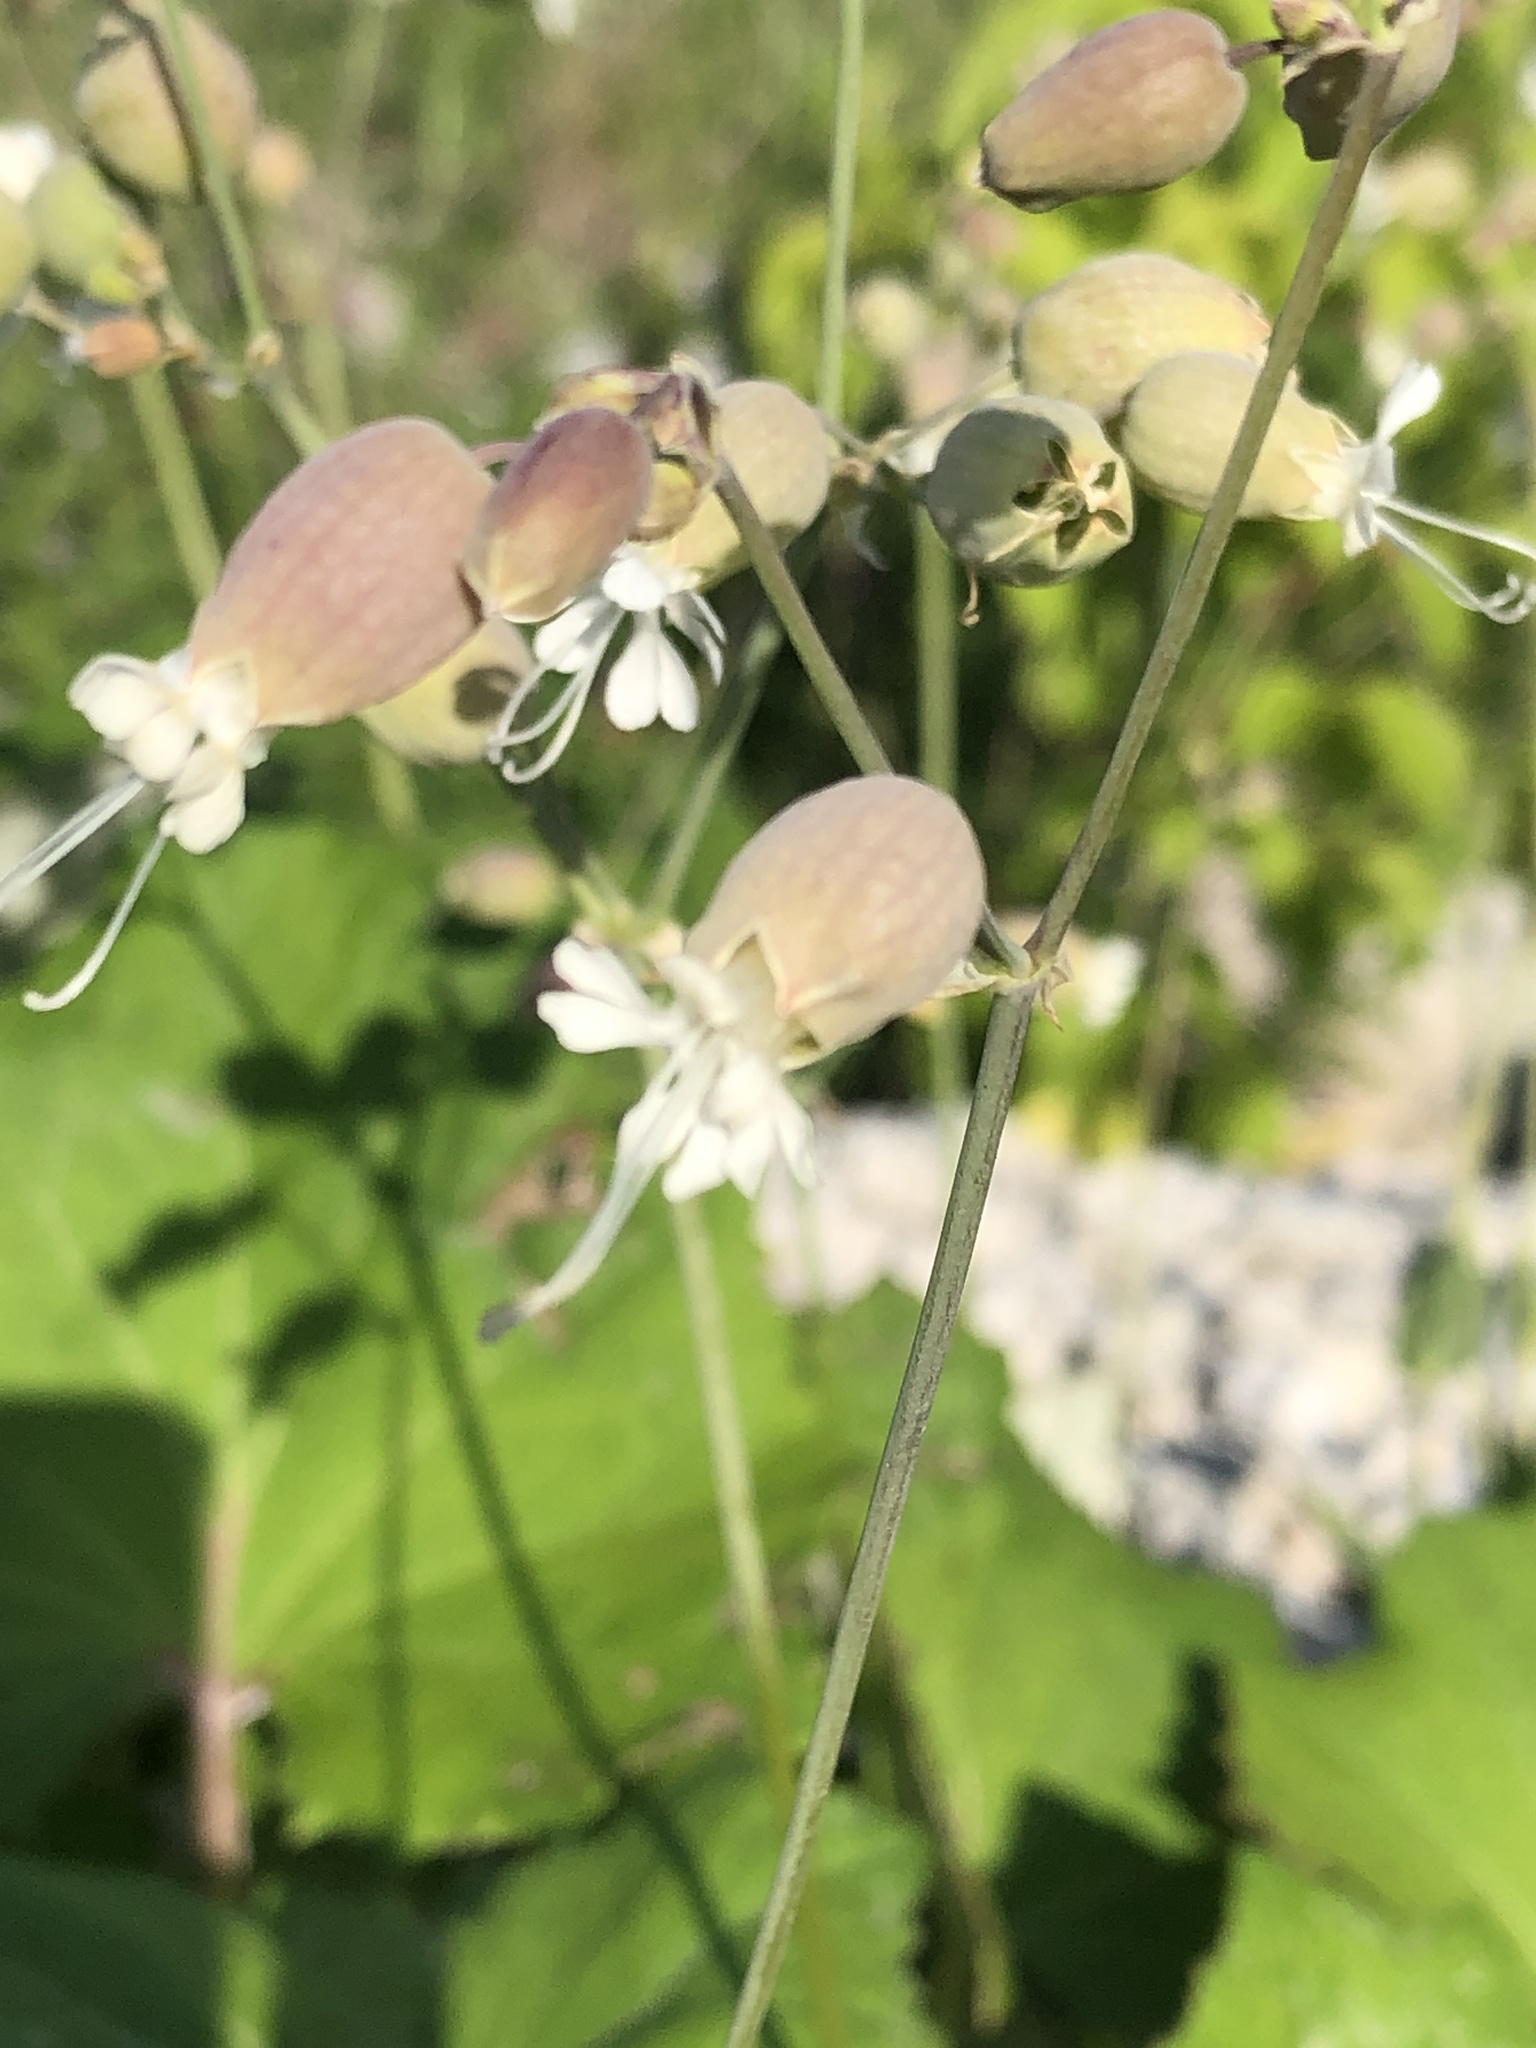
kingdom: Plantae
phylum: Tracheophyta
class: Magnoliopsida
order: Caryophyllales
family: Caryophyllaceae
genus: Silene
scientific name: Silene vulgaris
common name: Bladder campion
